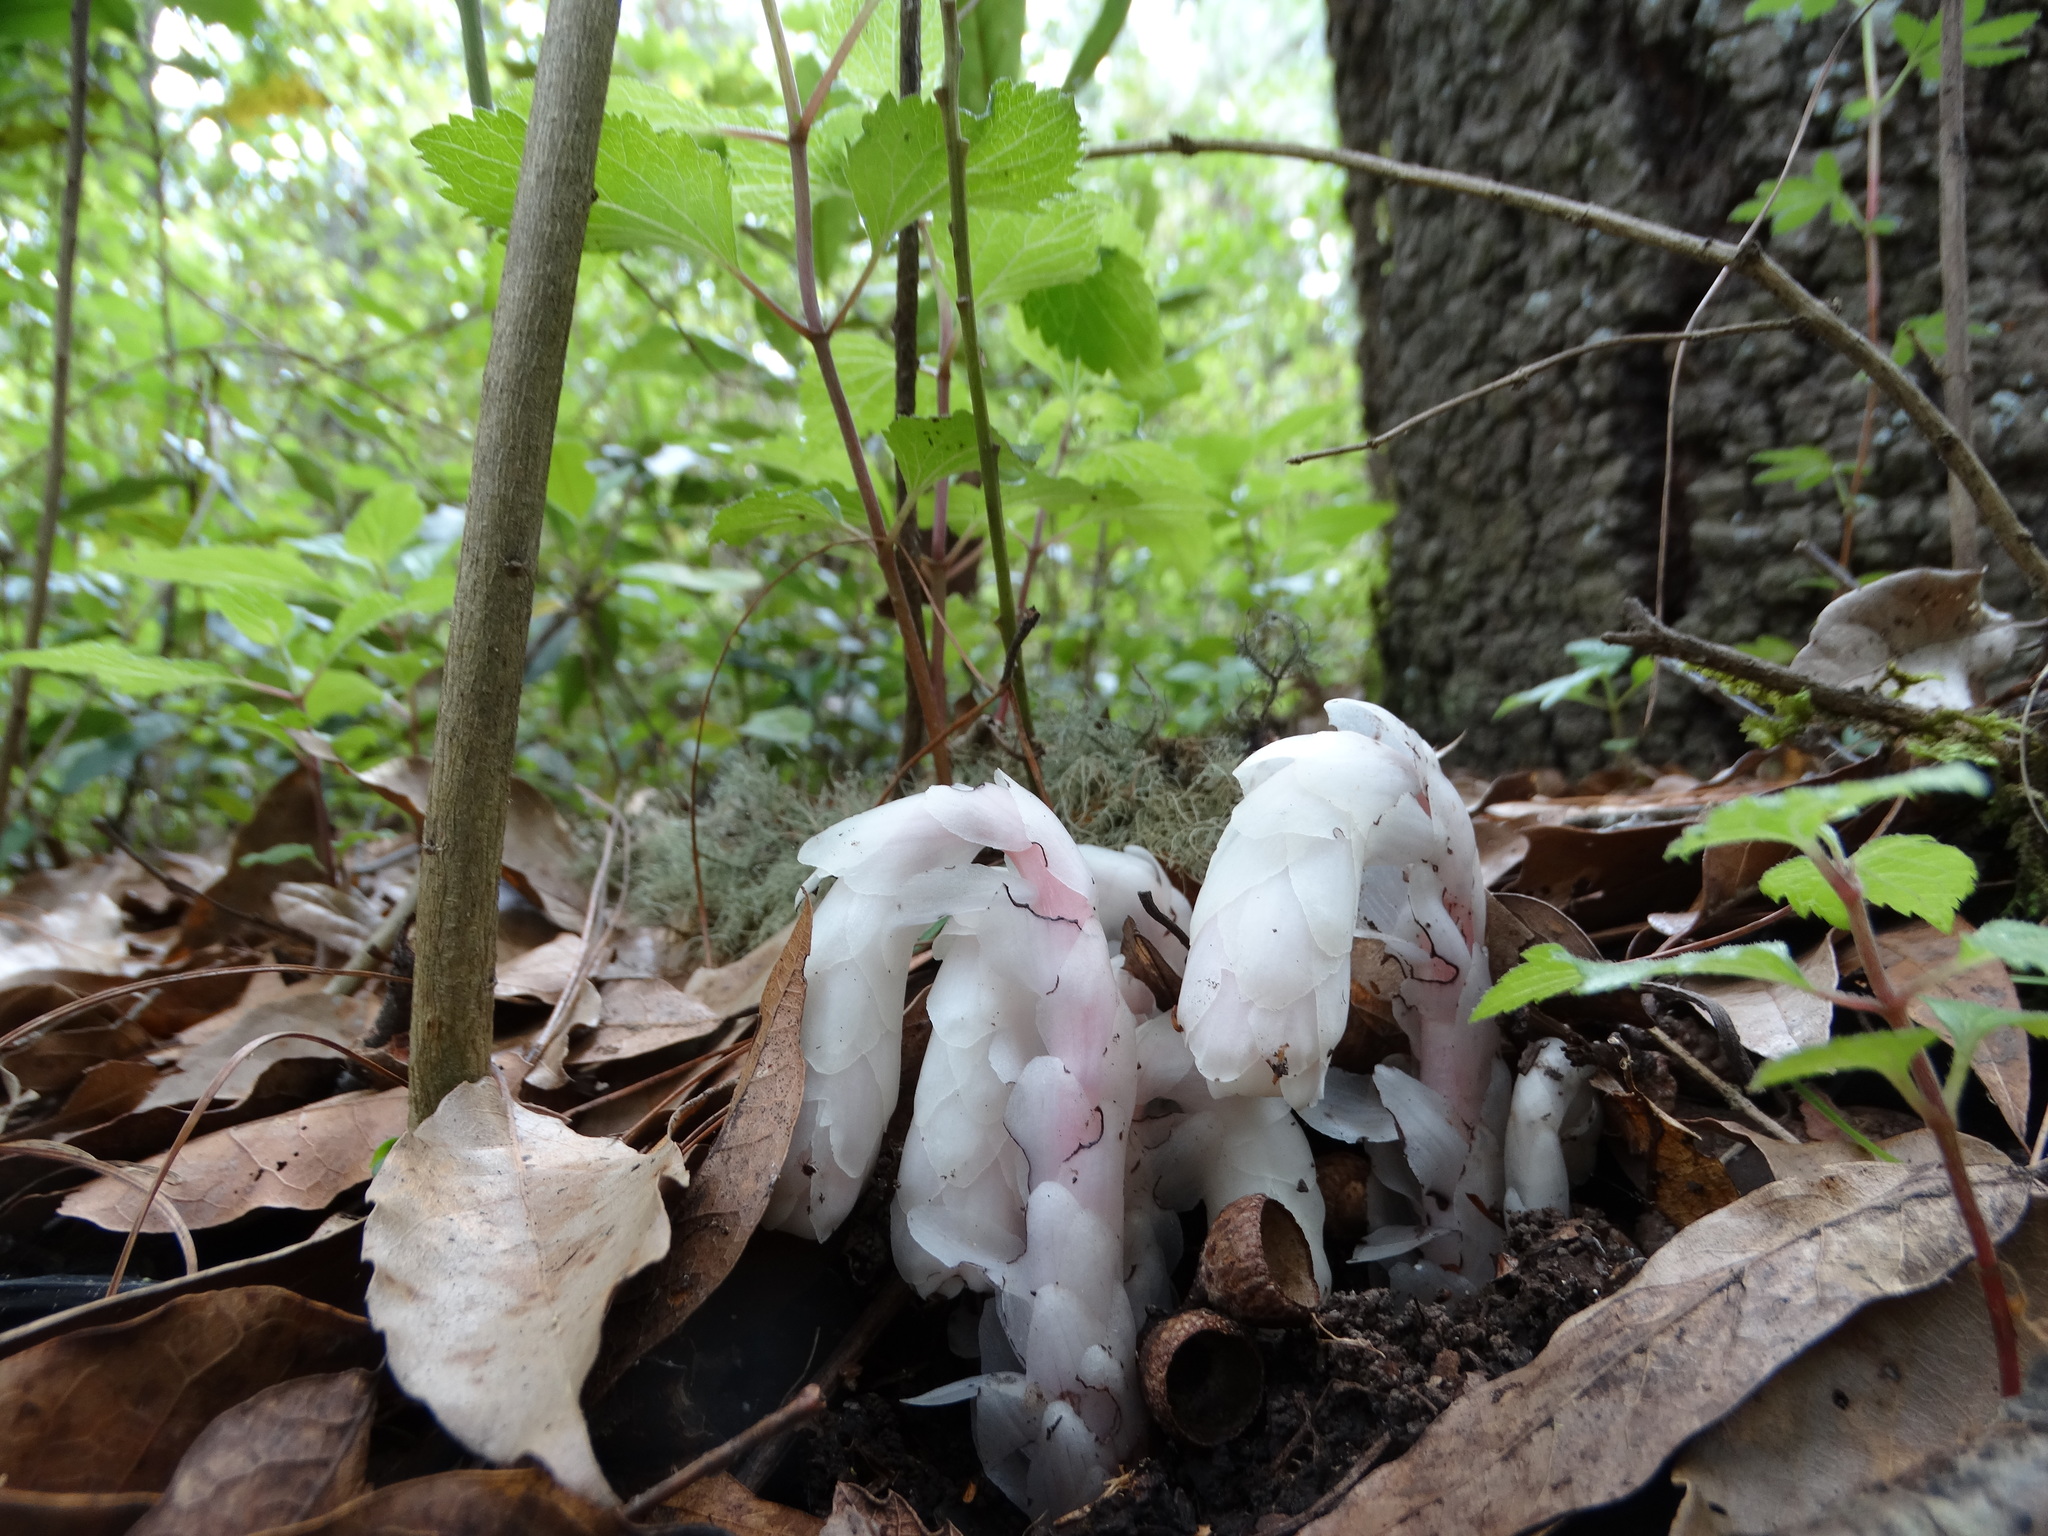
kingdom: Plantae
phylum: Tracheophyta
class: Magnoliopsida
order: Ericales
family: Ericaceae
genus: Monotropa
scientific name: Monotropa uniflora
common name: Convulsion root
